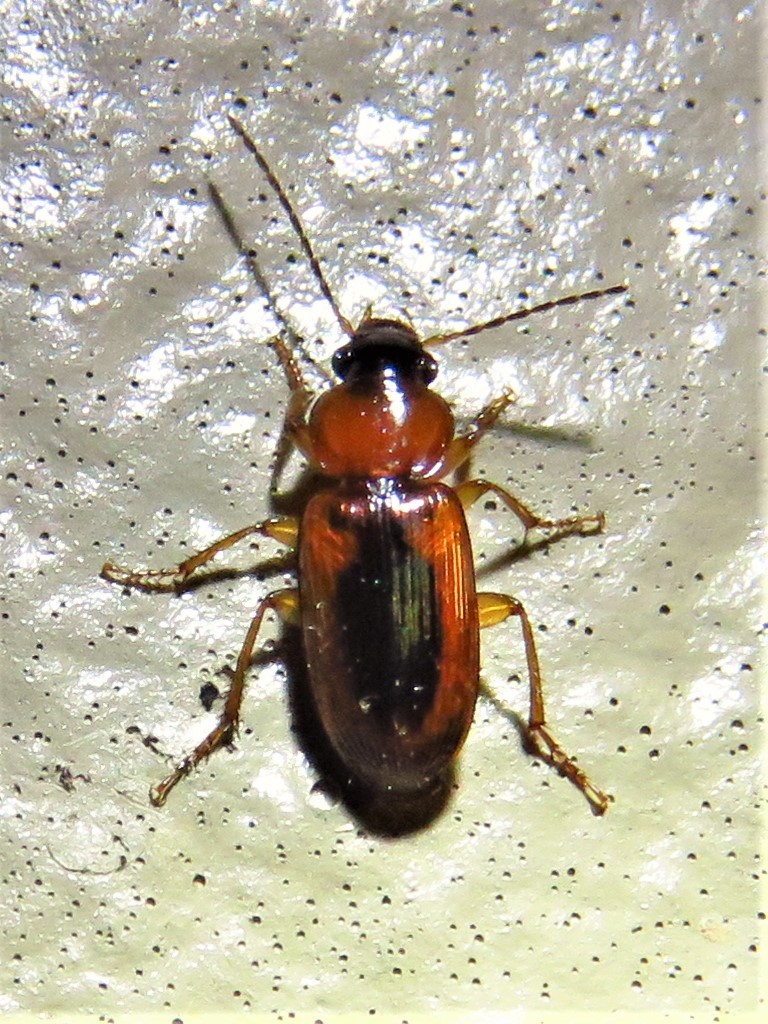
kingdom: Animalia
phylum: Arthropoda
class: Insecta
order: Coleoptera
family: Carabidae
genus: Stenolophus
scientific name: Stenolophus dissimilis
